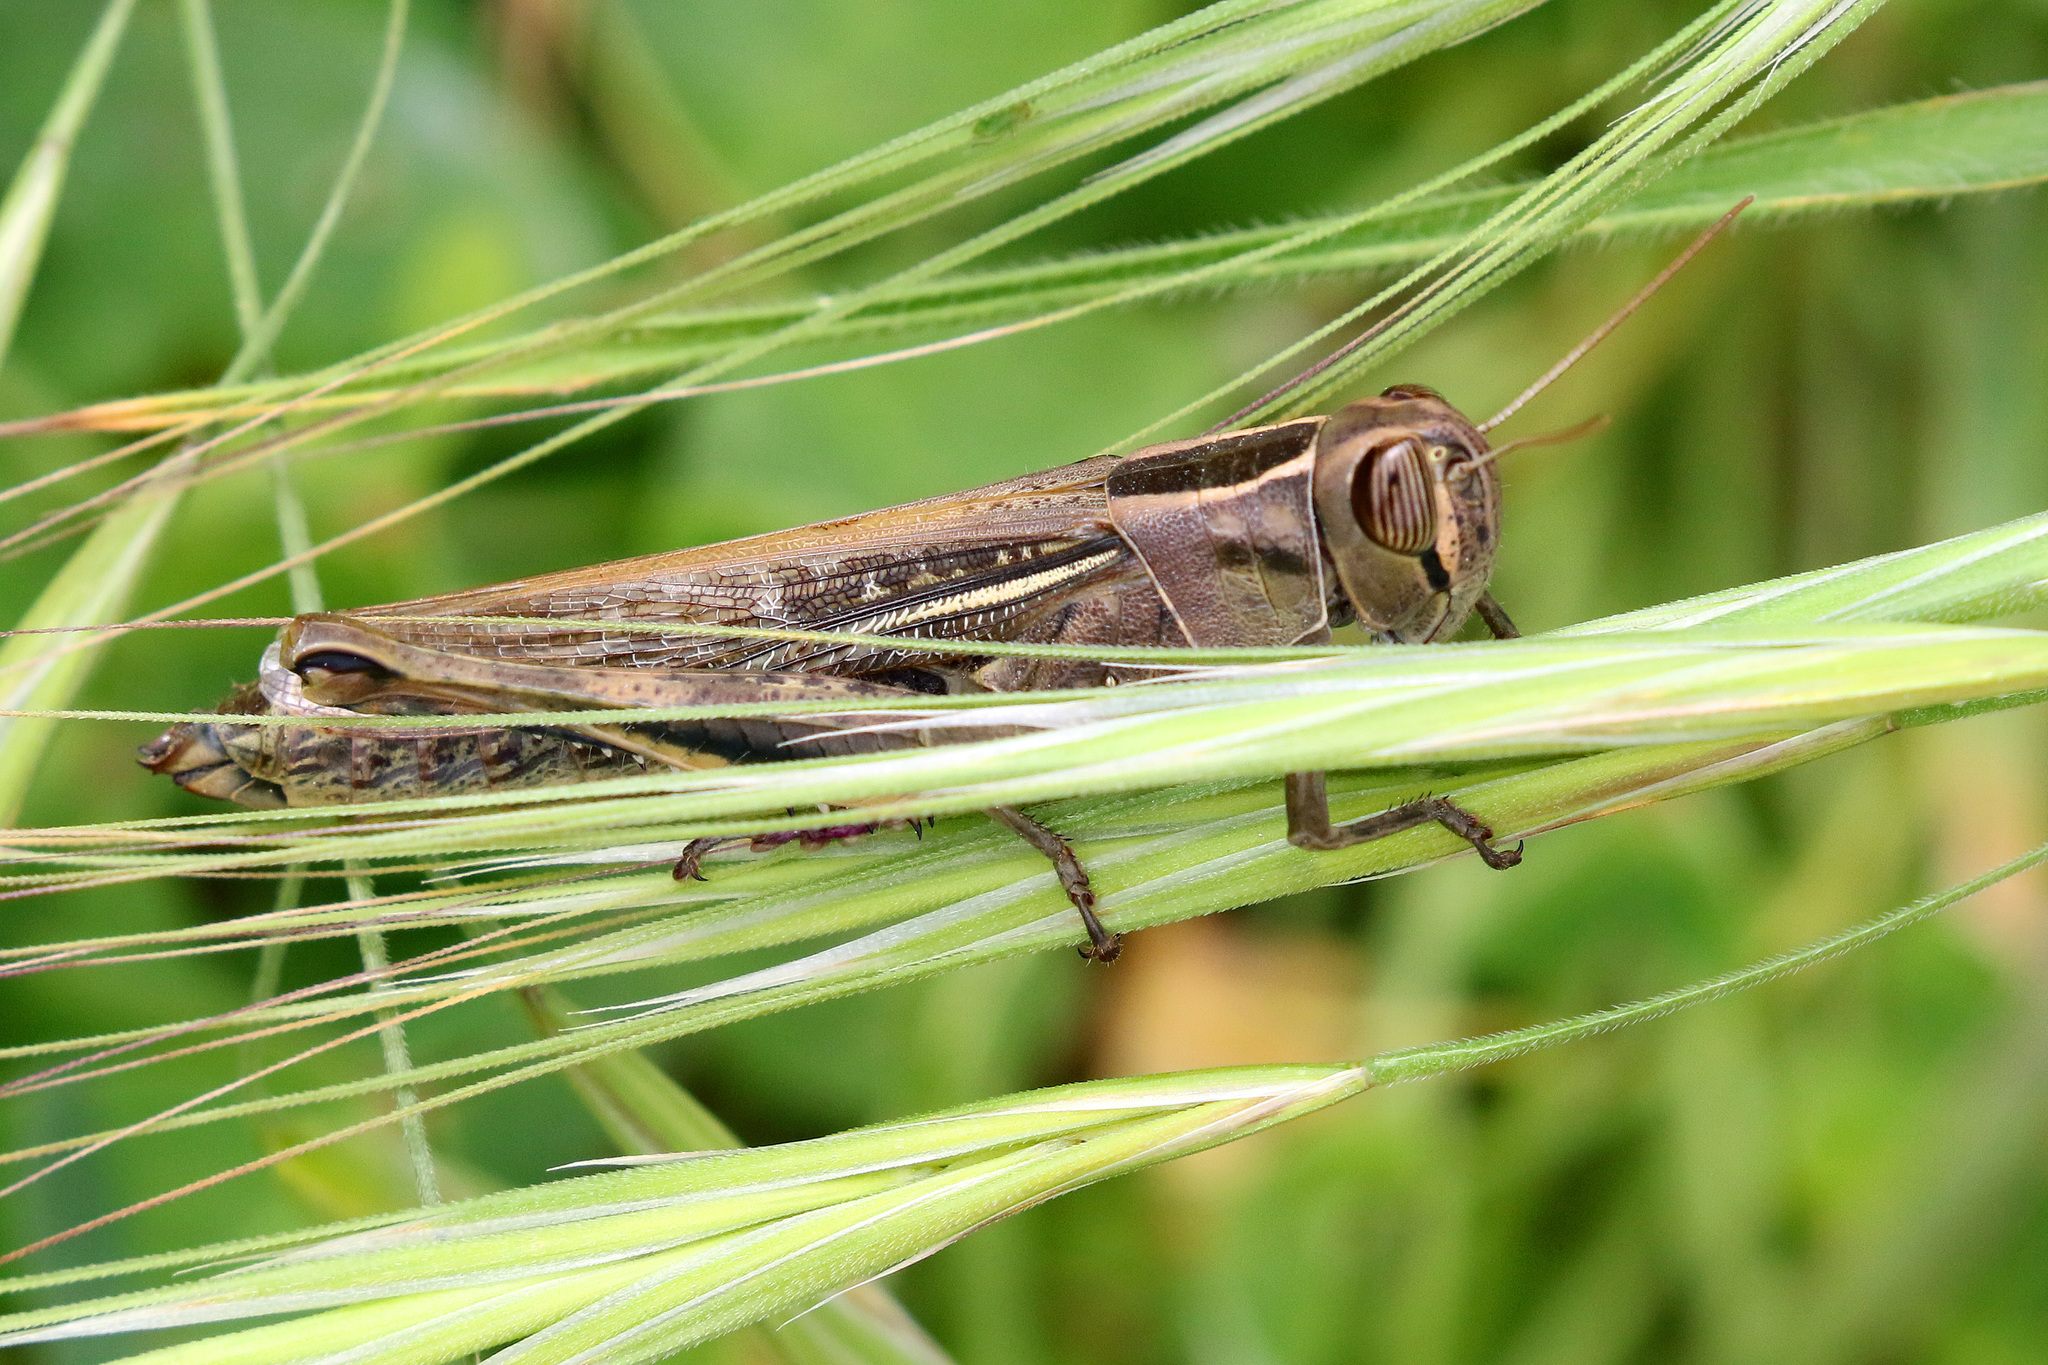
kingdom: Animalia
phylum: Arthropoda
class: Insecta
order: Orthoptera
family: Acrididae
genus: Eyprepocnemis
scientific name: Eyprepocnemis plorans
